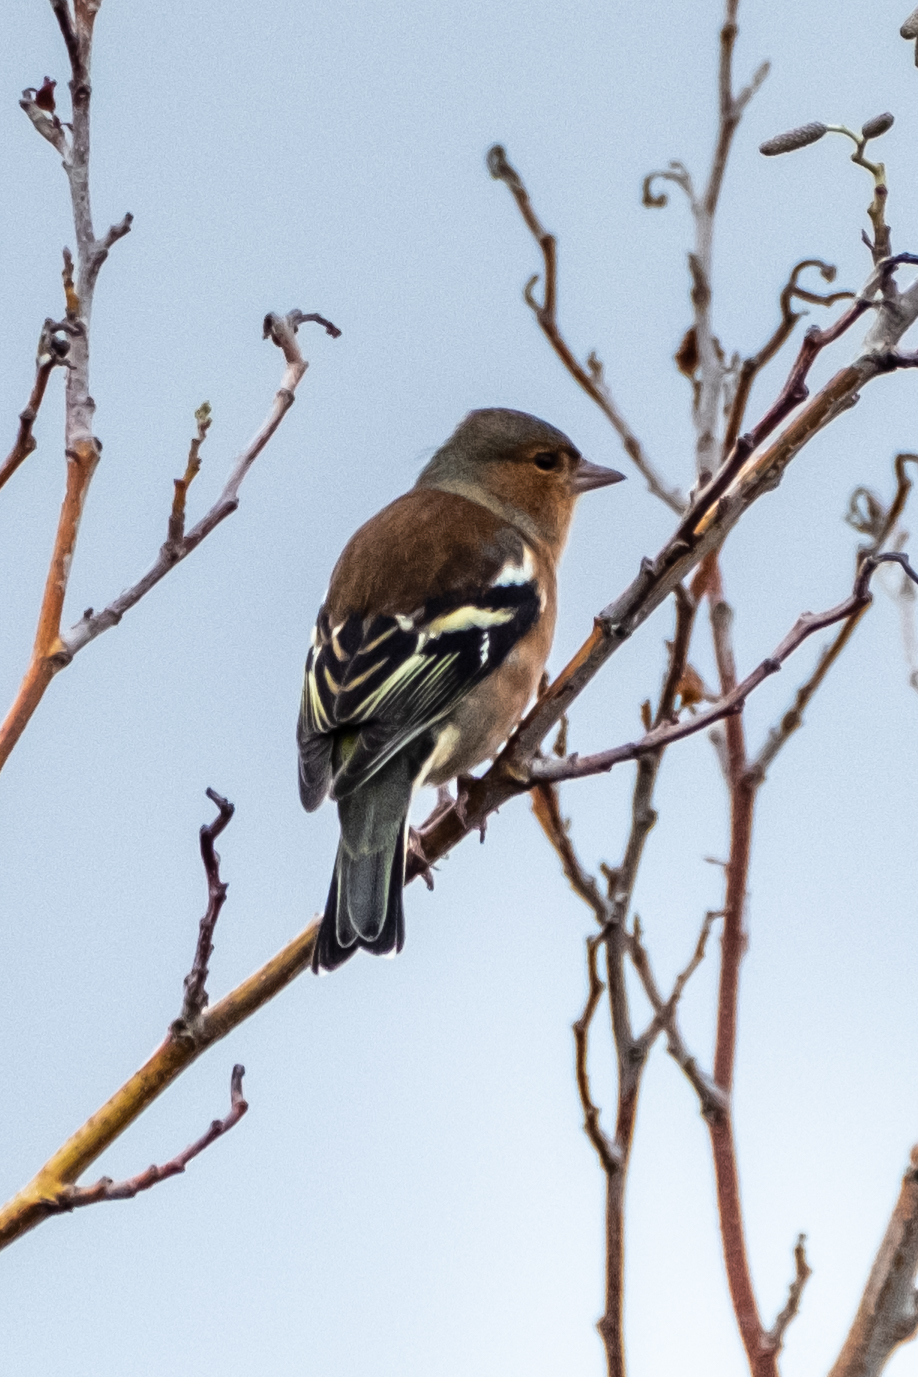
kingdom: Animalia
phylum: Chordata
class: Aves
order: Passeriformes
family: Fringillidae
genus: Fringilla
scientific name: Fringilla coelebs
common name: Common chaffinch
